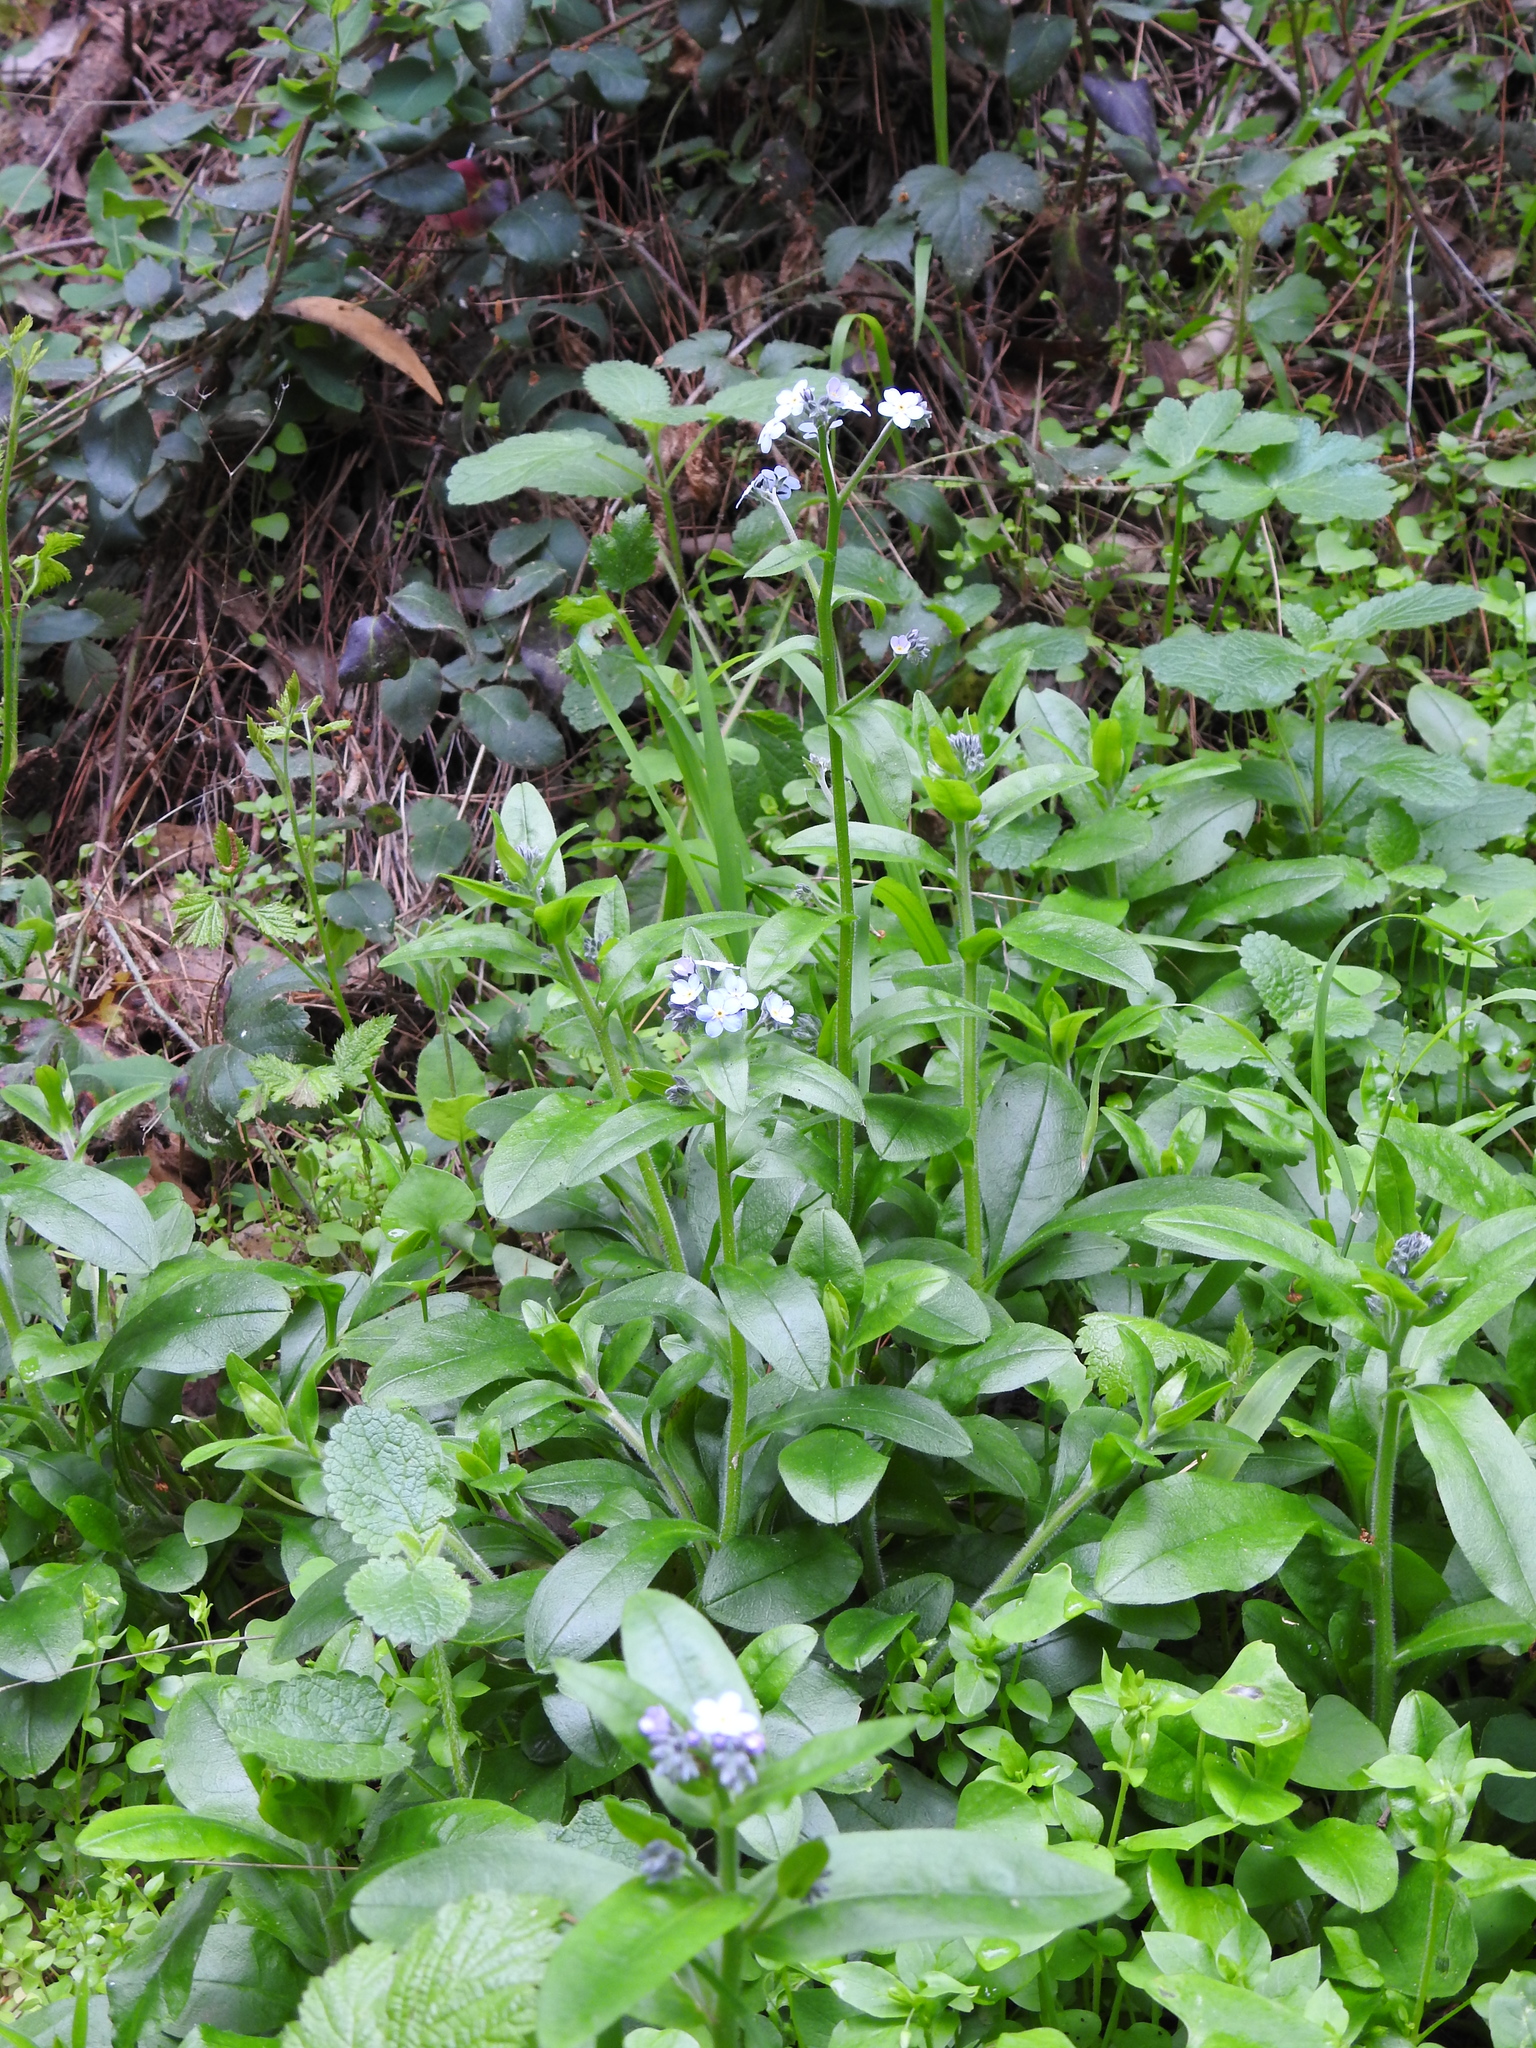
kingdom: Plantae
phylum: Tracheophyta
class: Magnoliopsida
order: Boraginales
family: Boraginaceae
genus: Myosotis
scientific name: Myosotis latifolia
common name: Broadleaf forget-me-not
